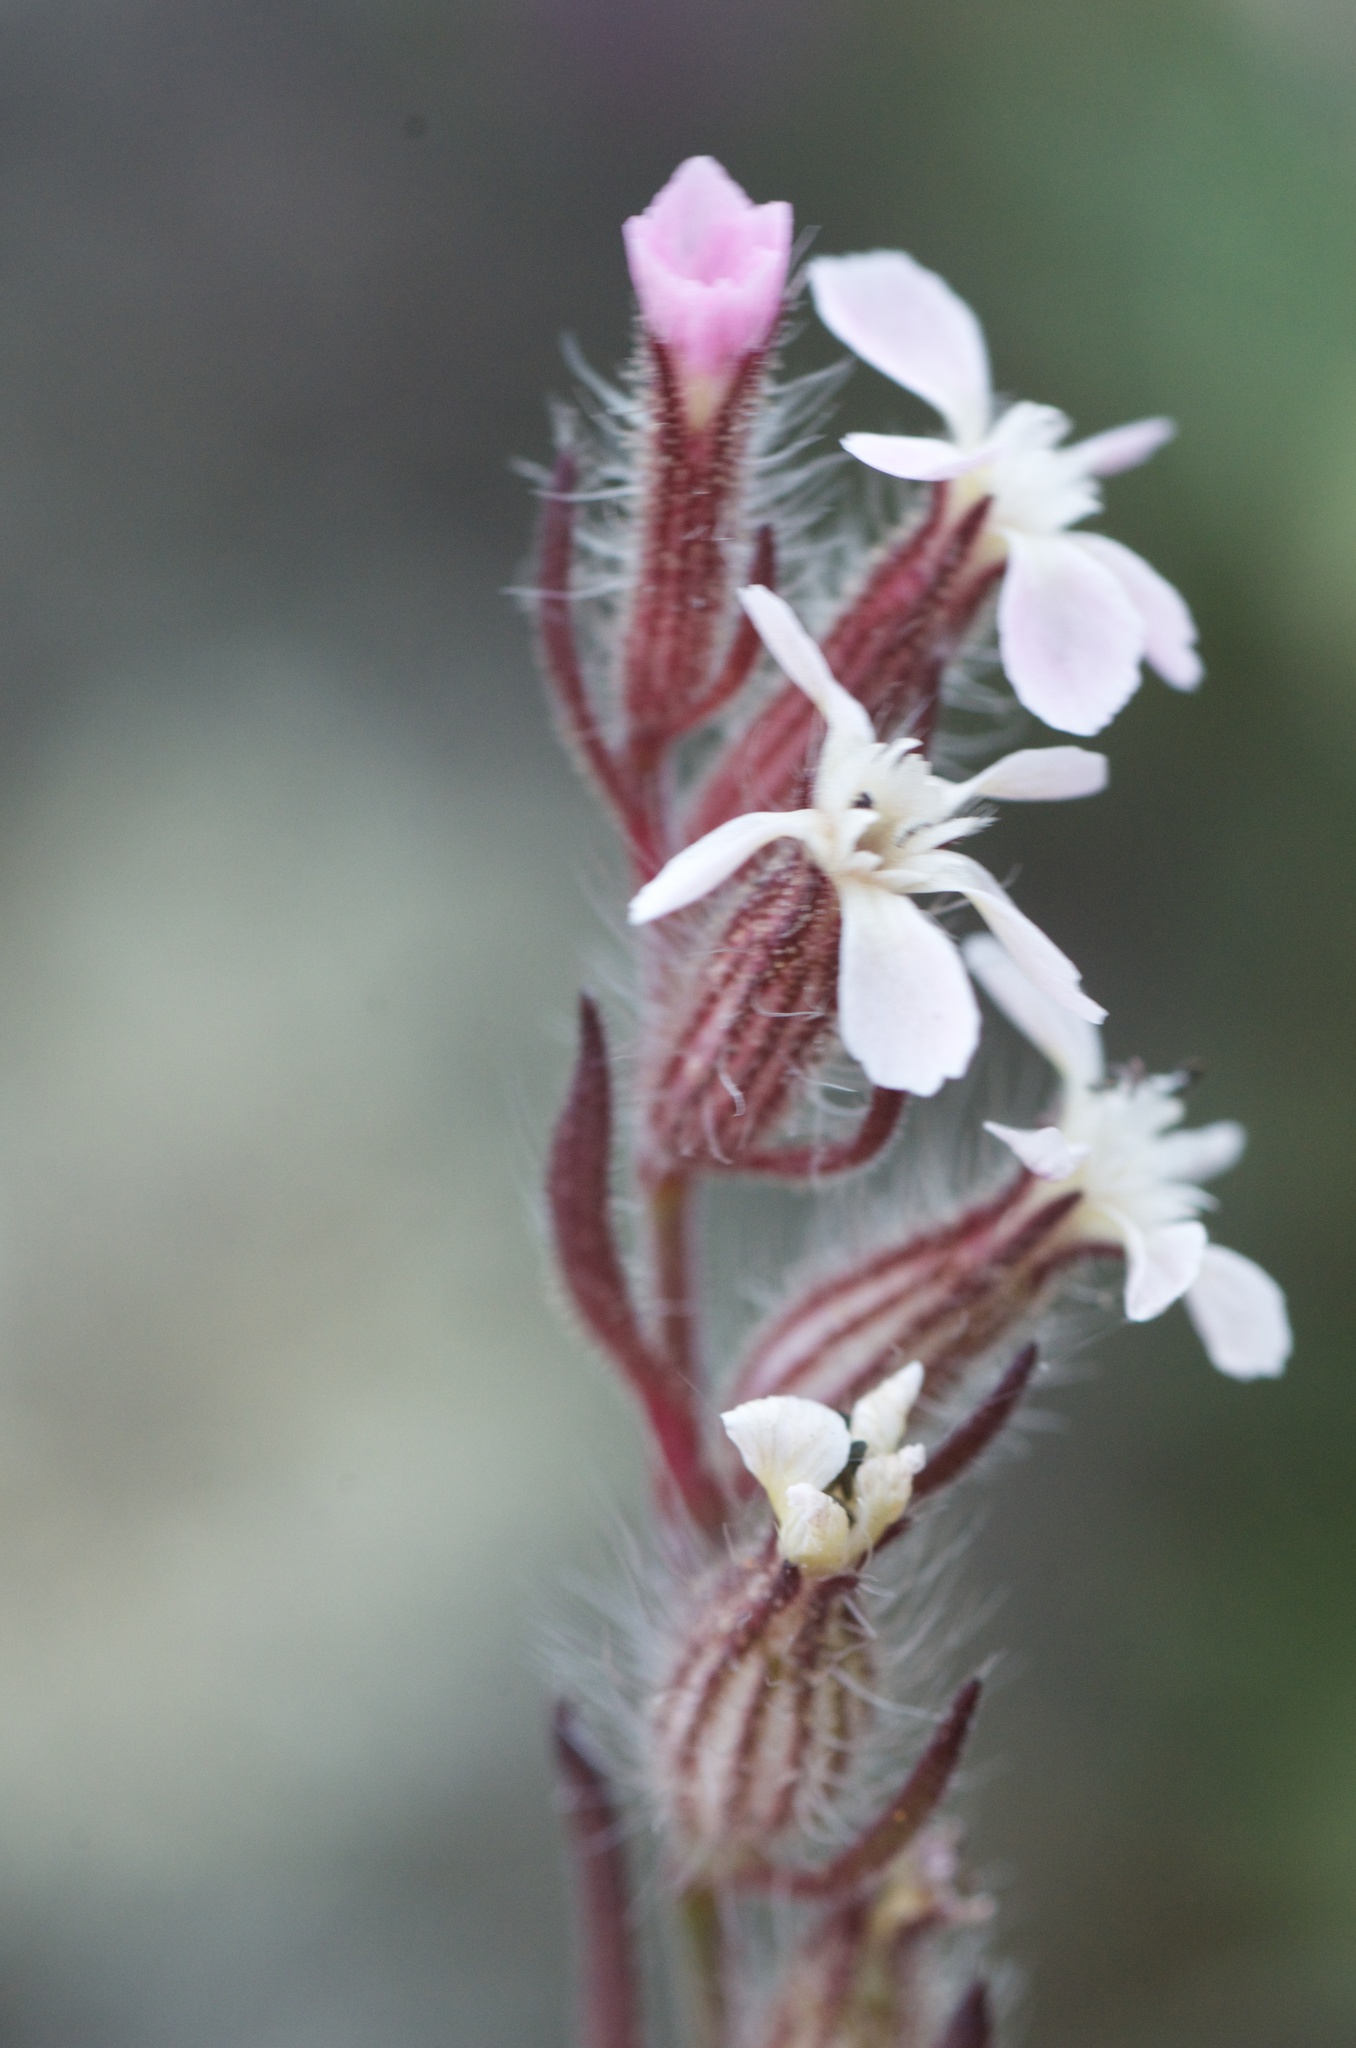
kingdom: Plantae
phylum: Tracheophyta
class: Magnoliopsida
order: Caryophyllales
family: Caryophyllaceae
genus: Silene
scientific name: Silene gallica
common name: Small-flowered catchfly
